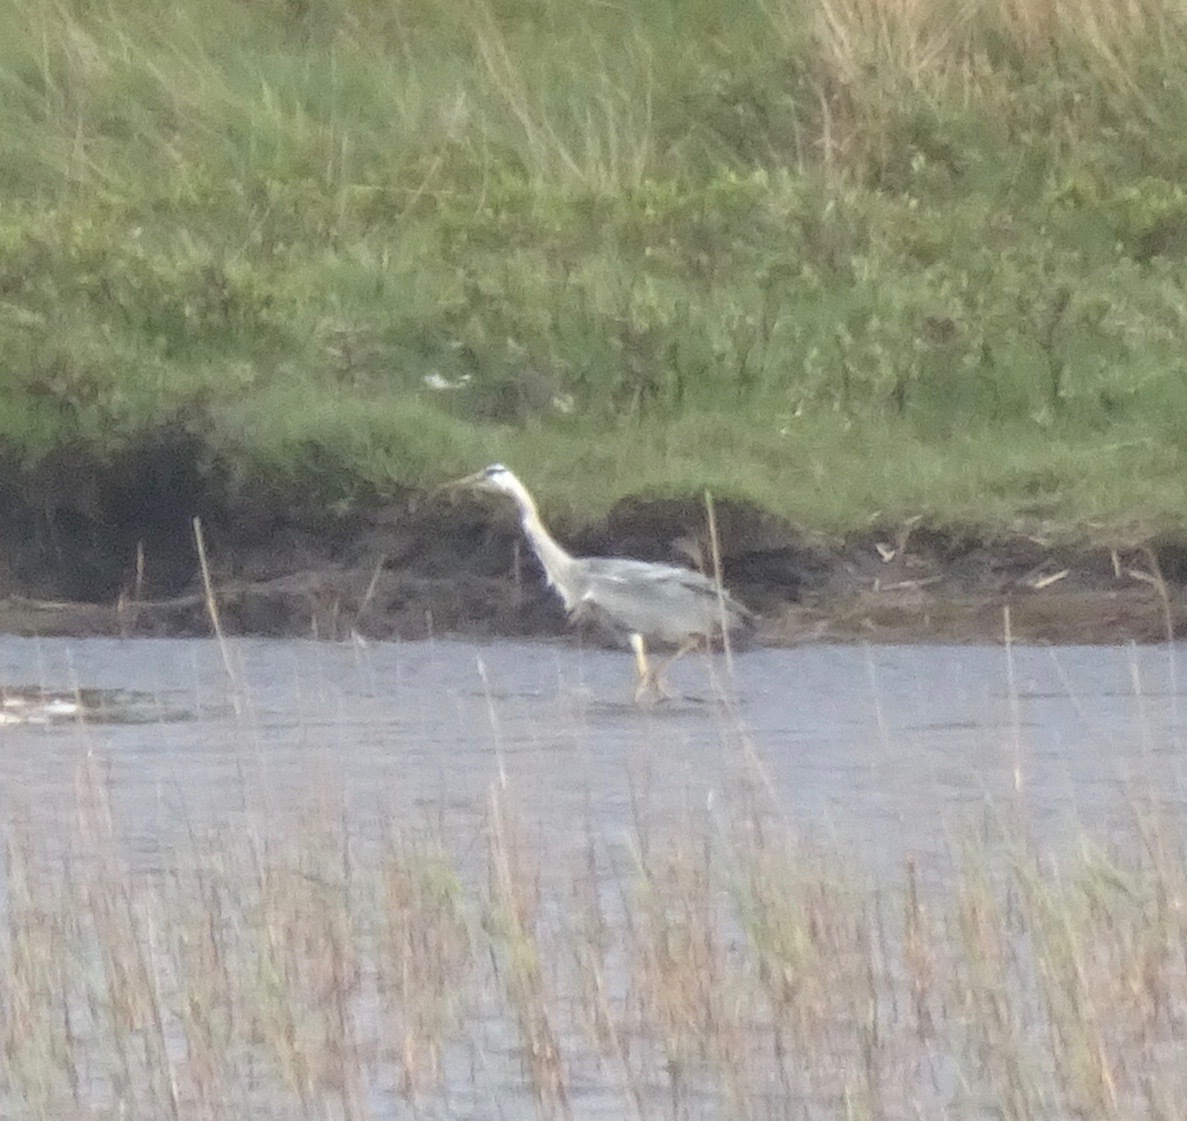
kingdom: Animalia
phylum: Chordata
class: Aves
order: Pelecaniformes
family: Ardeidae
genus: Ardea
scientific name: Ardea cinerea
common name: Grey heron
